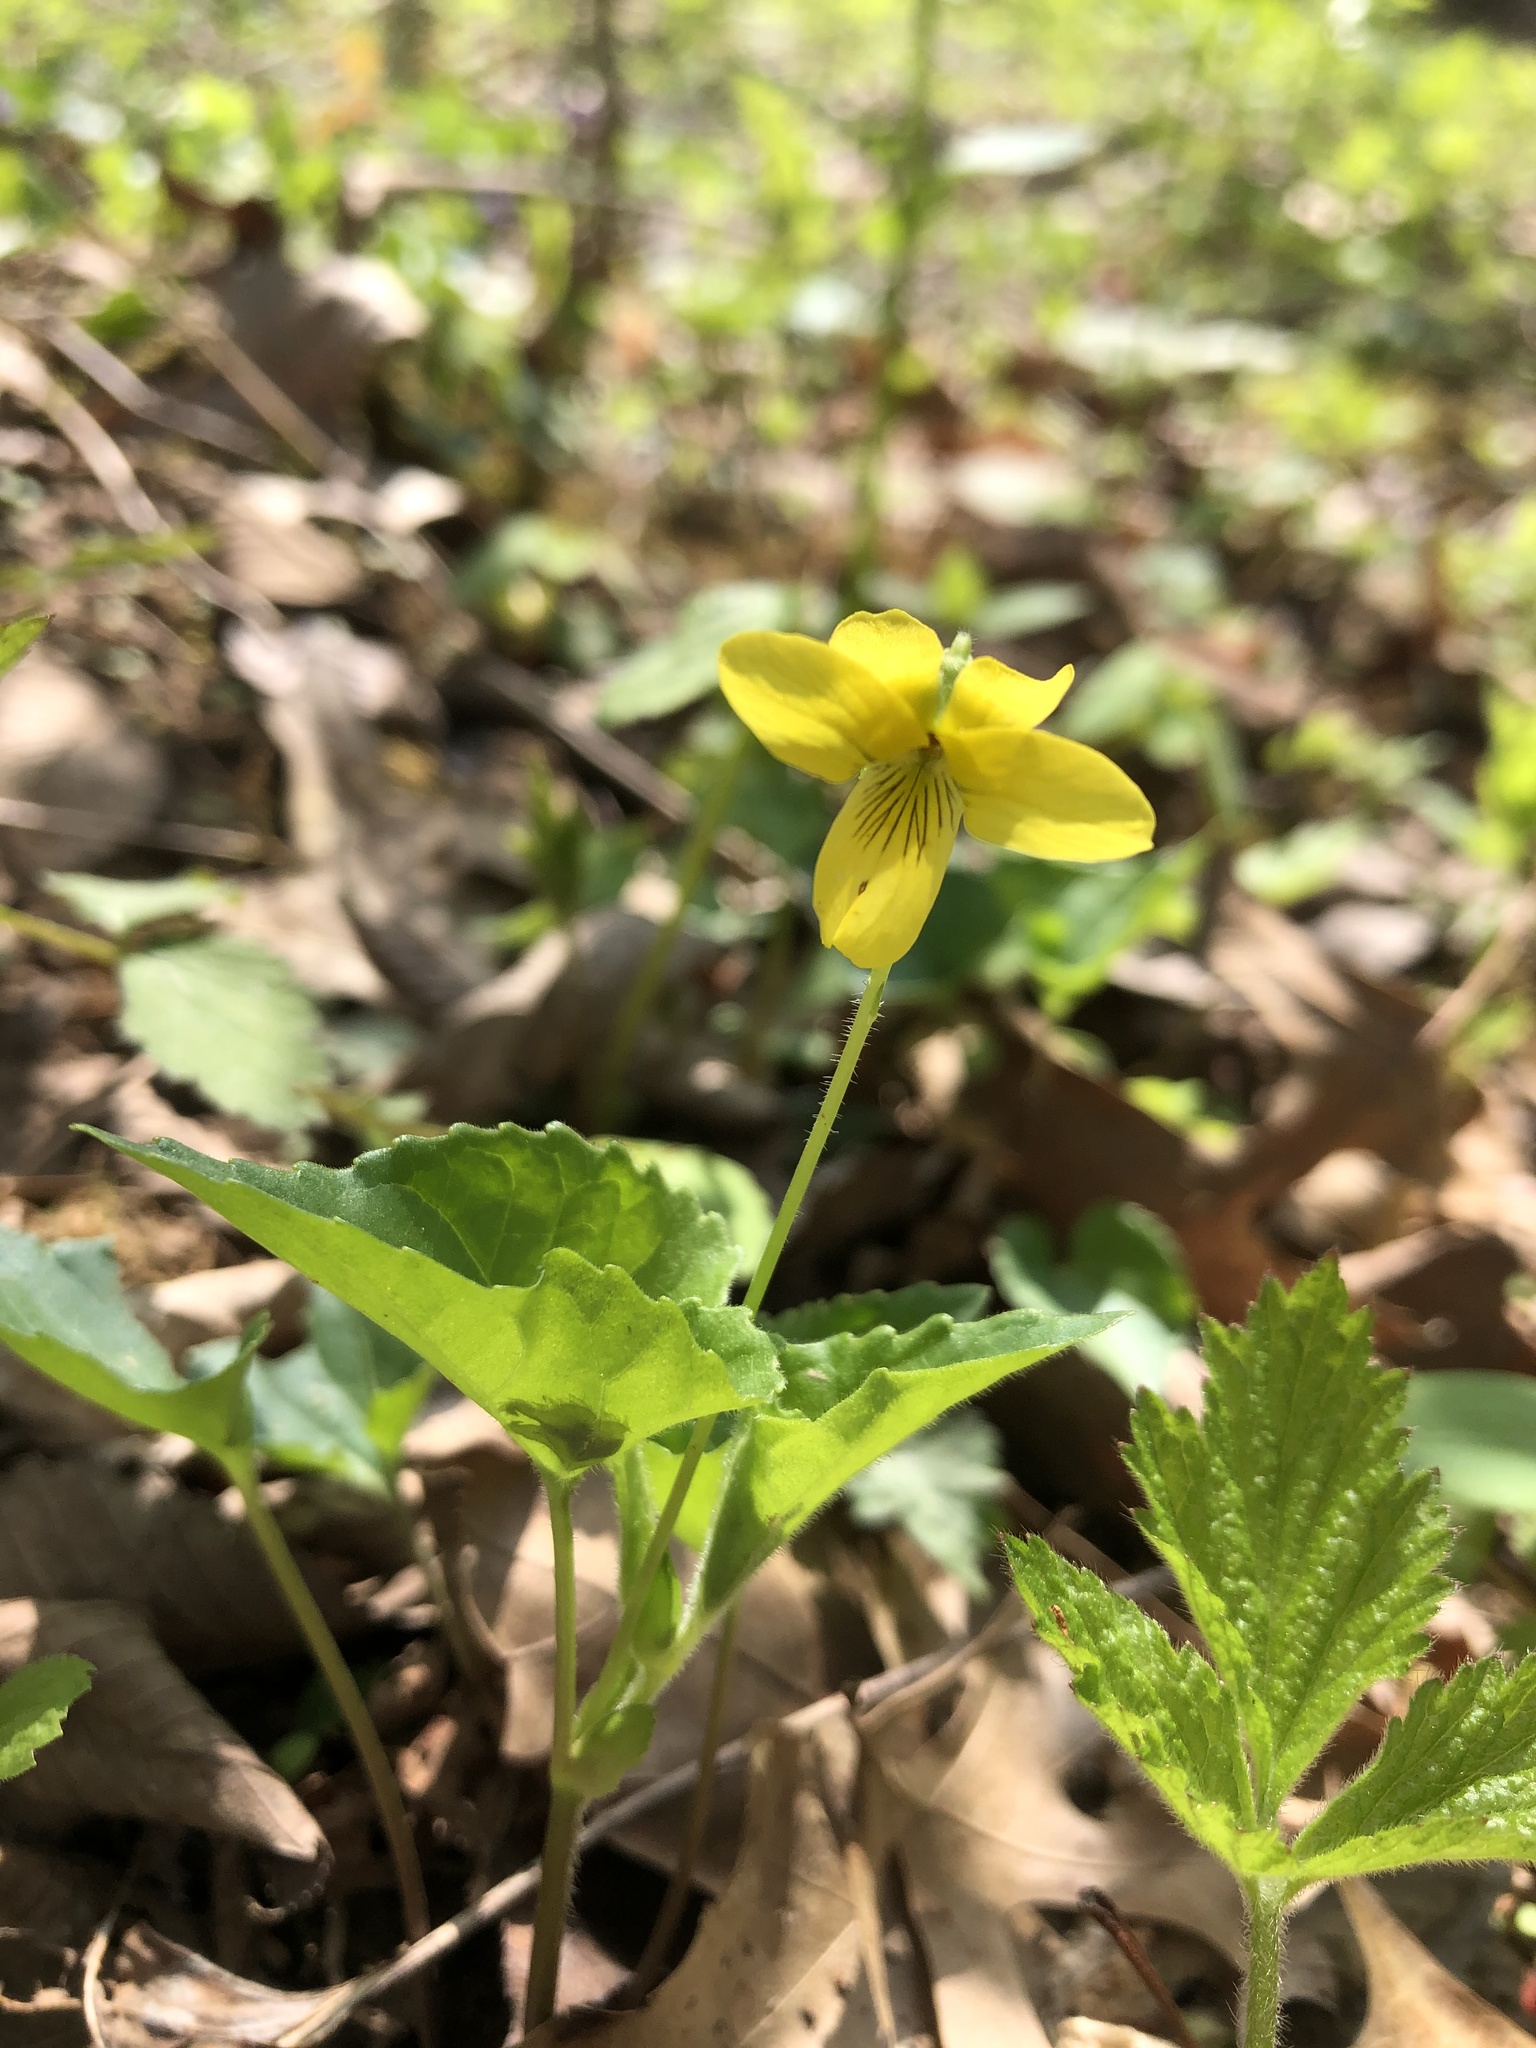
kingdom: Plantae
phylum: Tracheophyta
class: Magnoliopsida
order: Malpighiales
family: Violaceae
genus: Viola
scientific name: Viola eriocarpa
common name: Smooth yellow violet
